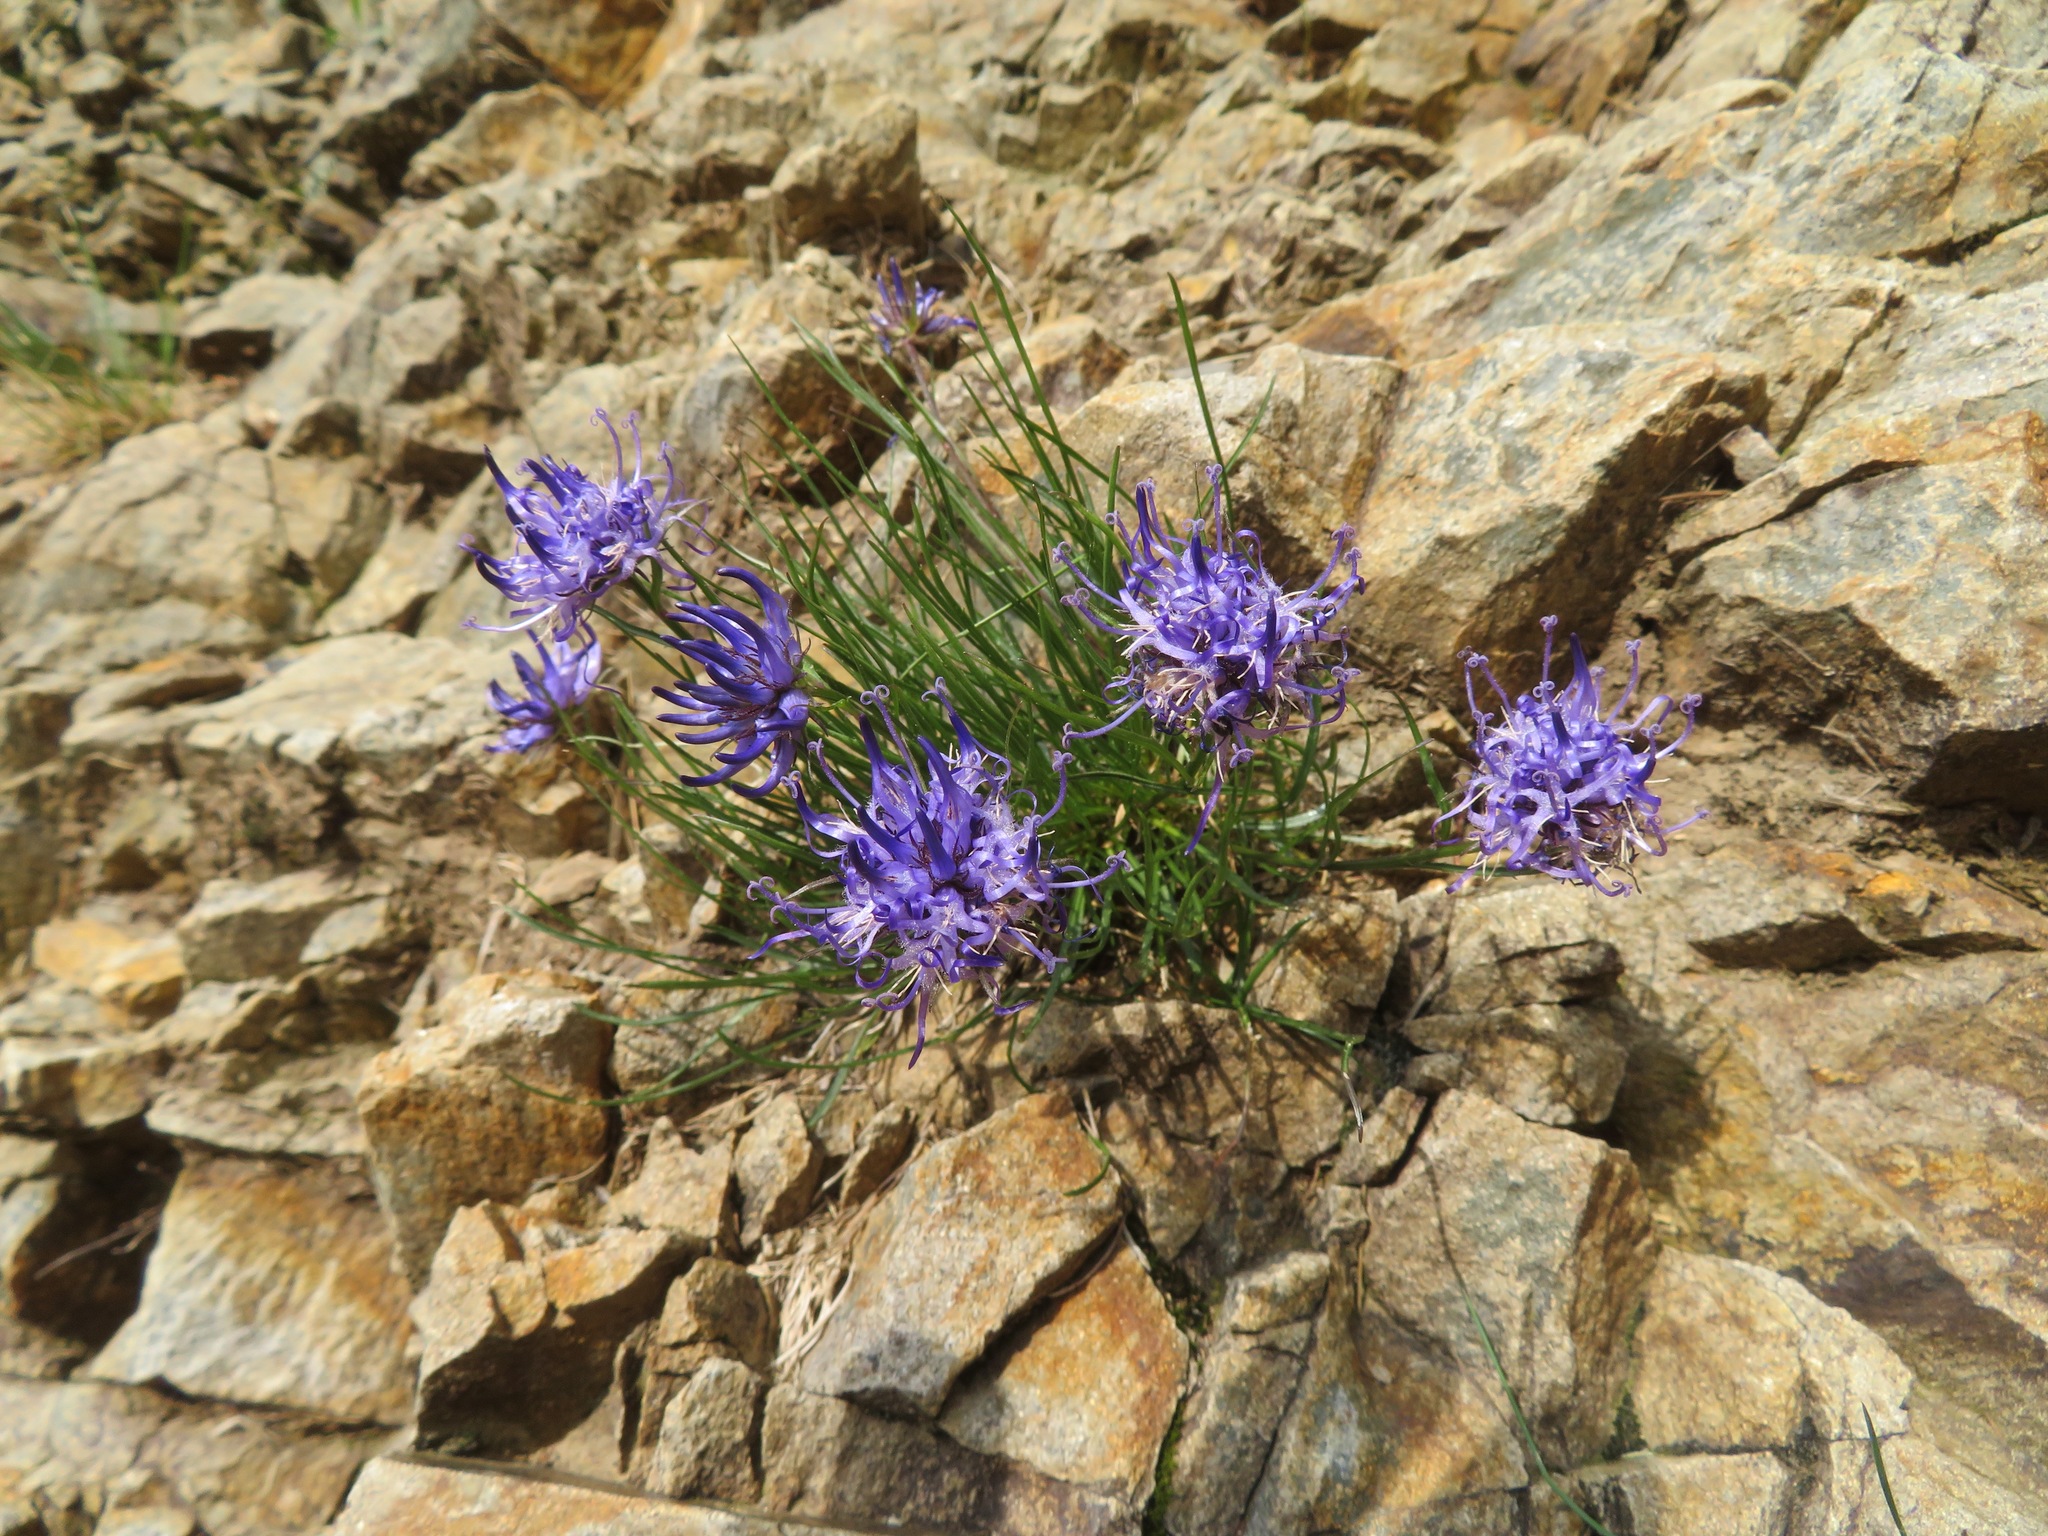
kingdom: Plantae
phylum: Tracheophyta
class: Magnoliopsida
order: Asterales
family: Campanulaceae
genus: Phyteuma
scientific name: Phyteuma hedraianthifolium
